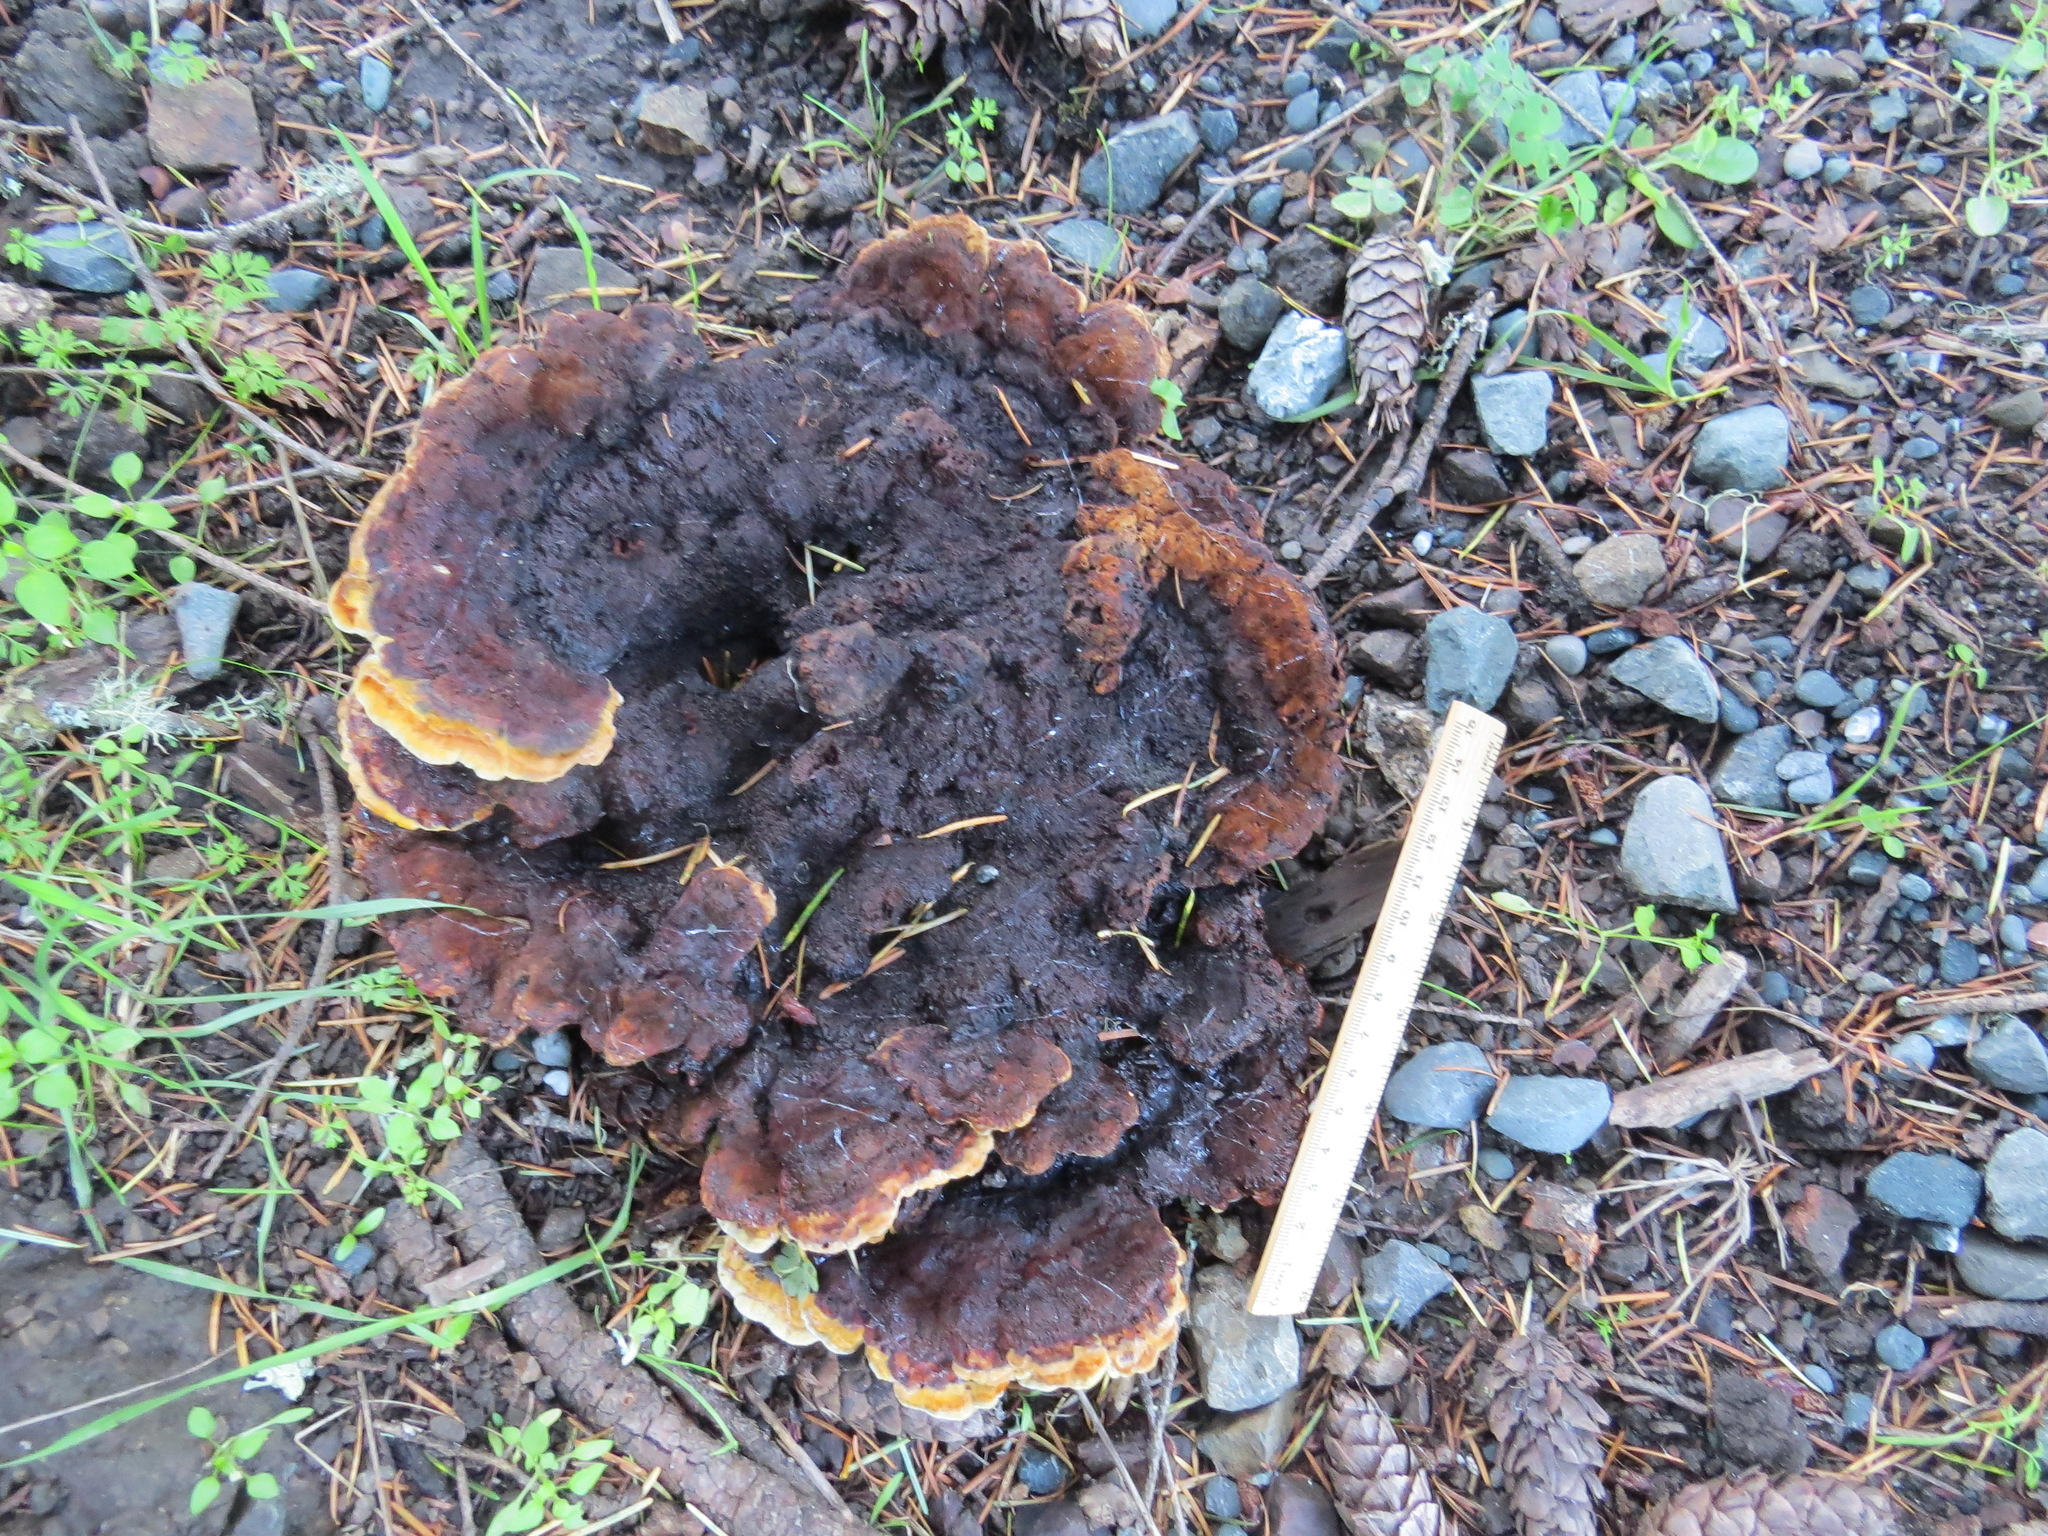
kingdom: Fungi
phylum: Basidiomycota
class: Agaricomycetes
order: Polyporales
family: Laetiporaceae
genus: Phaeolus
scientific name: Phaeolus schweinitzii
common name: Dyer's mazegill
